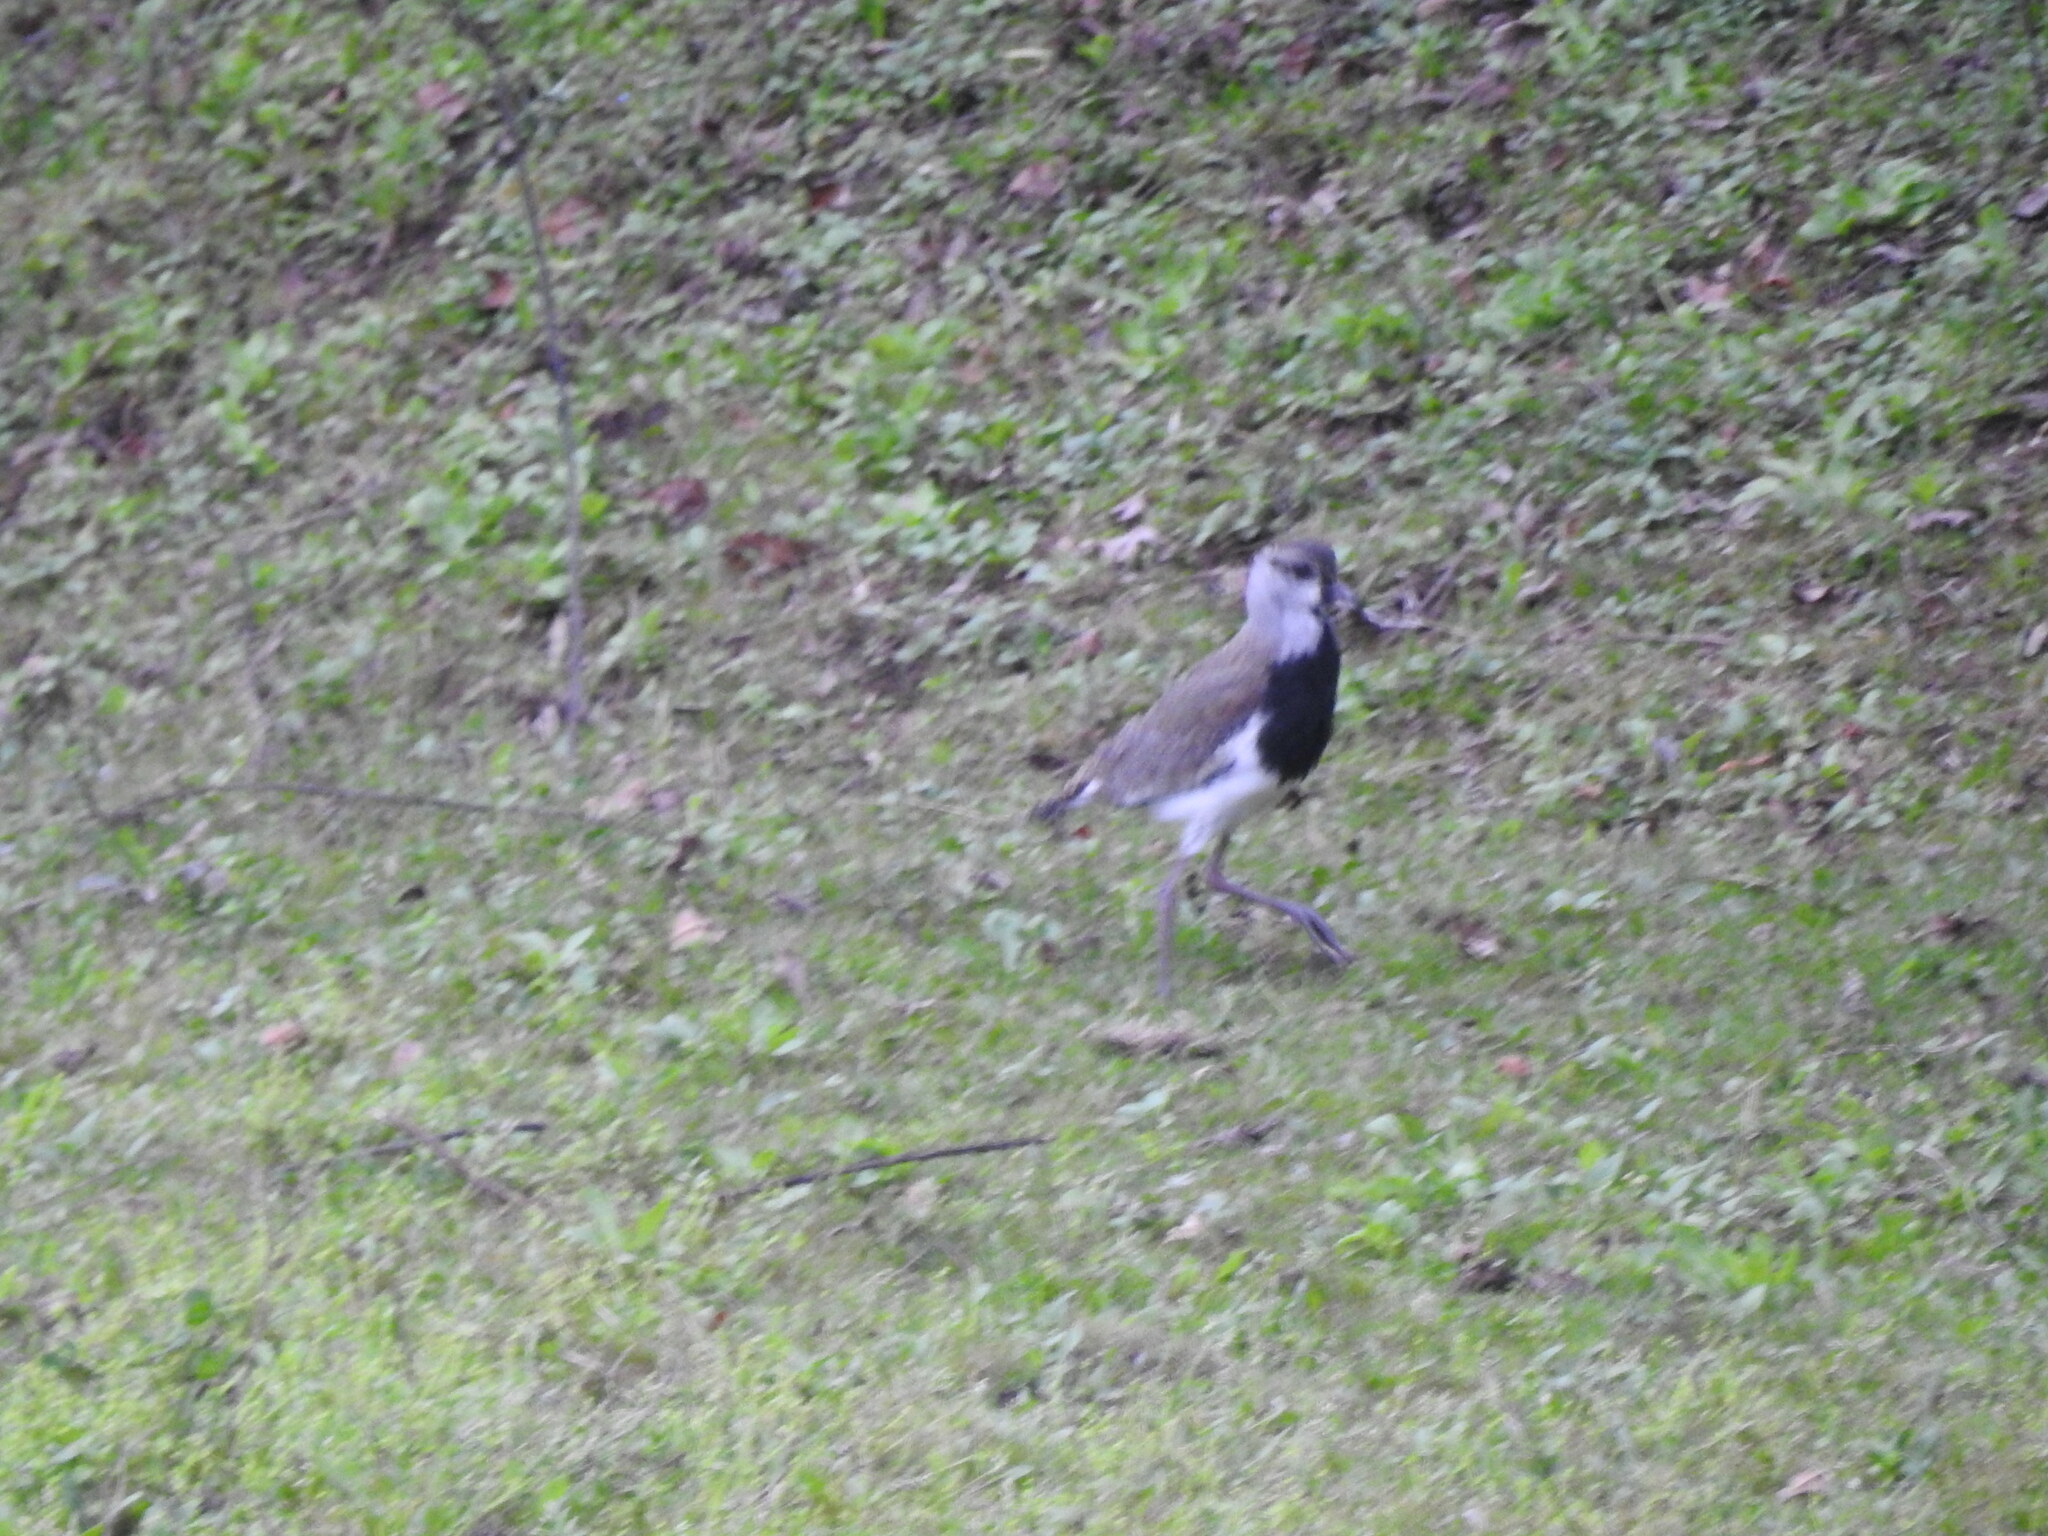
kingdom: Animalia
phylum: Chordata
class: Aves
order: Charadriiformes
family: Charadriidae
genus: Vanellus
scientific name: Vanellus chilensis
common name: Southern lapwing
